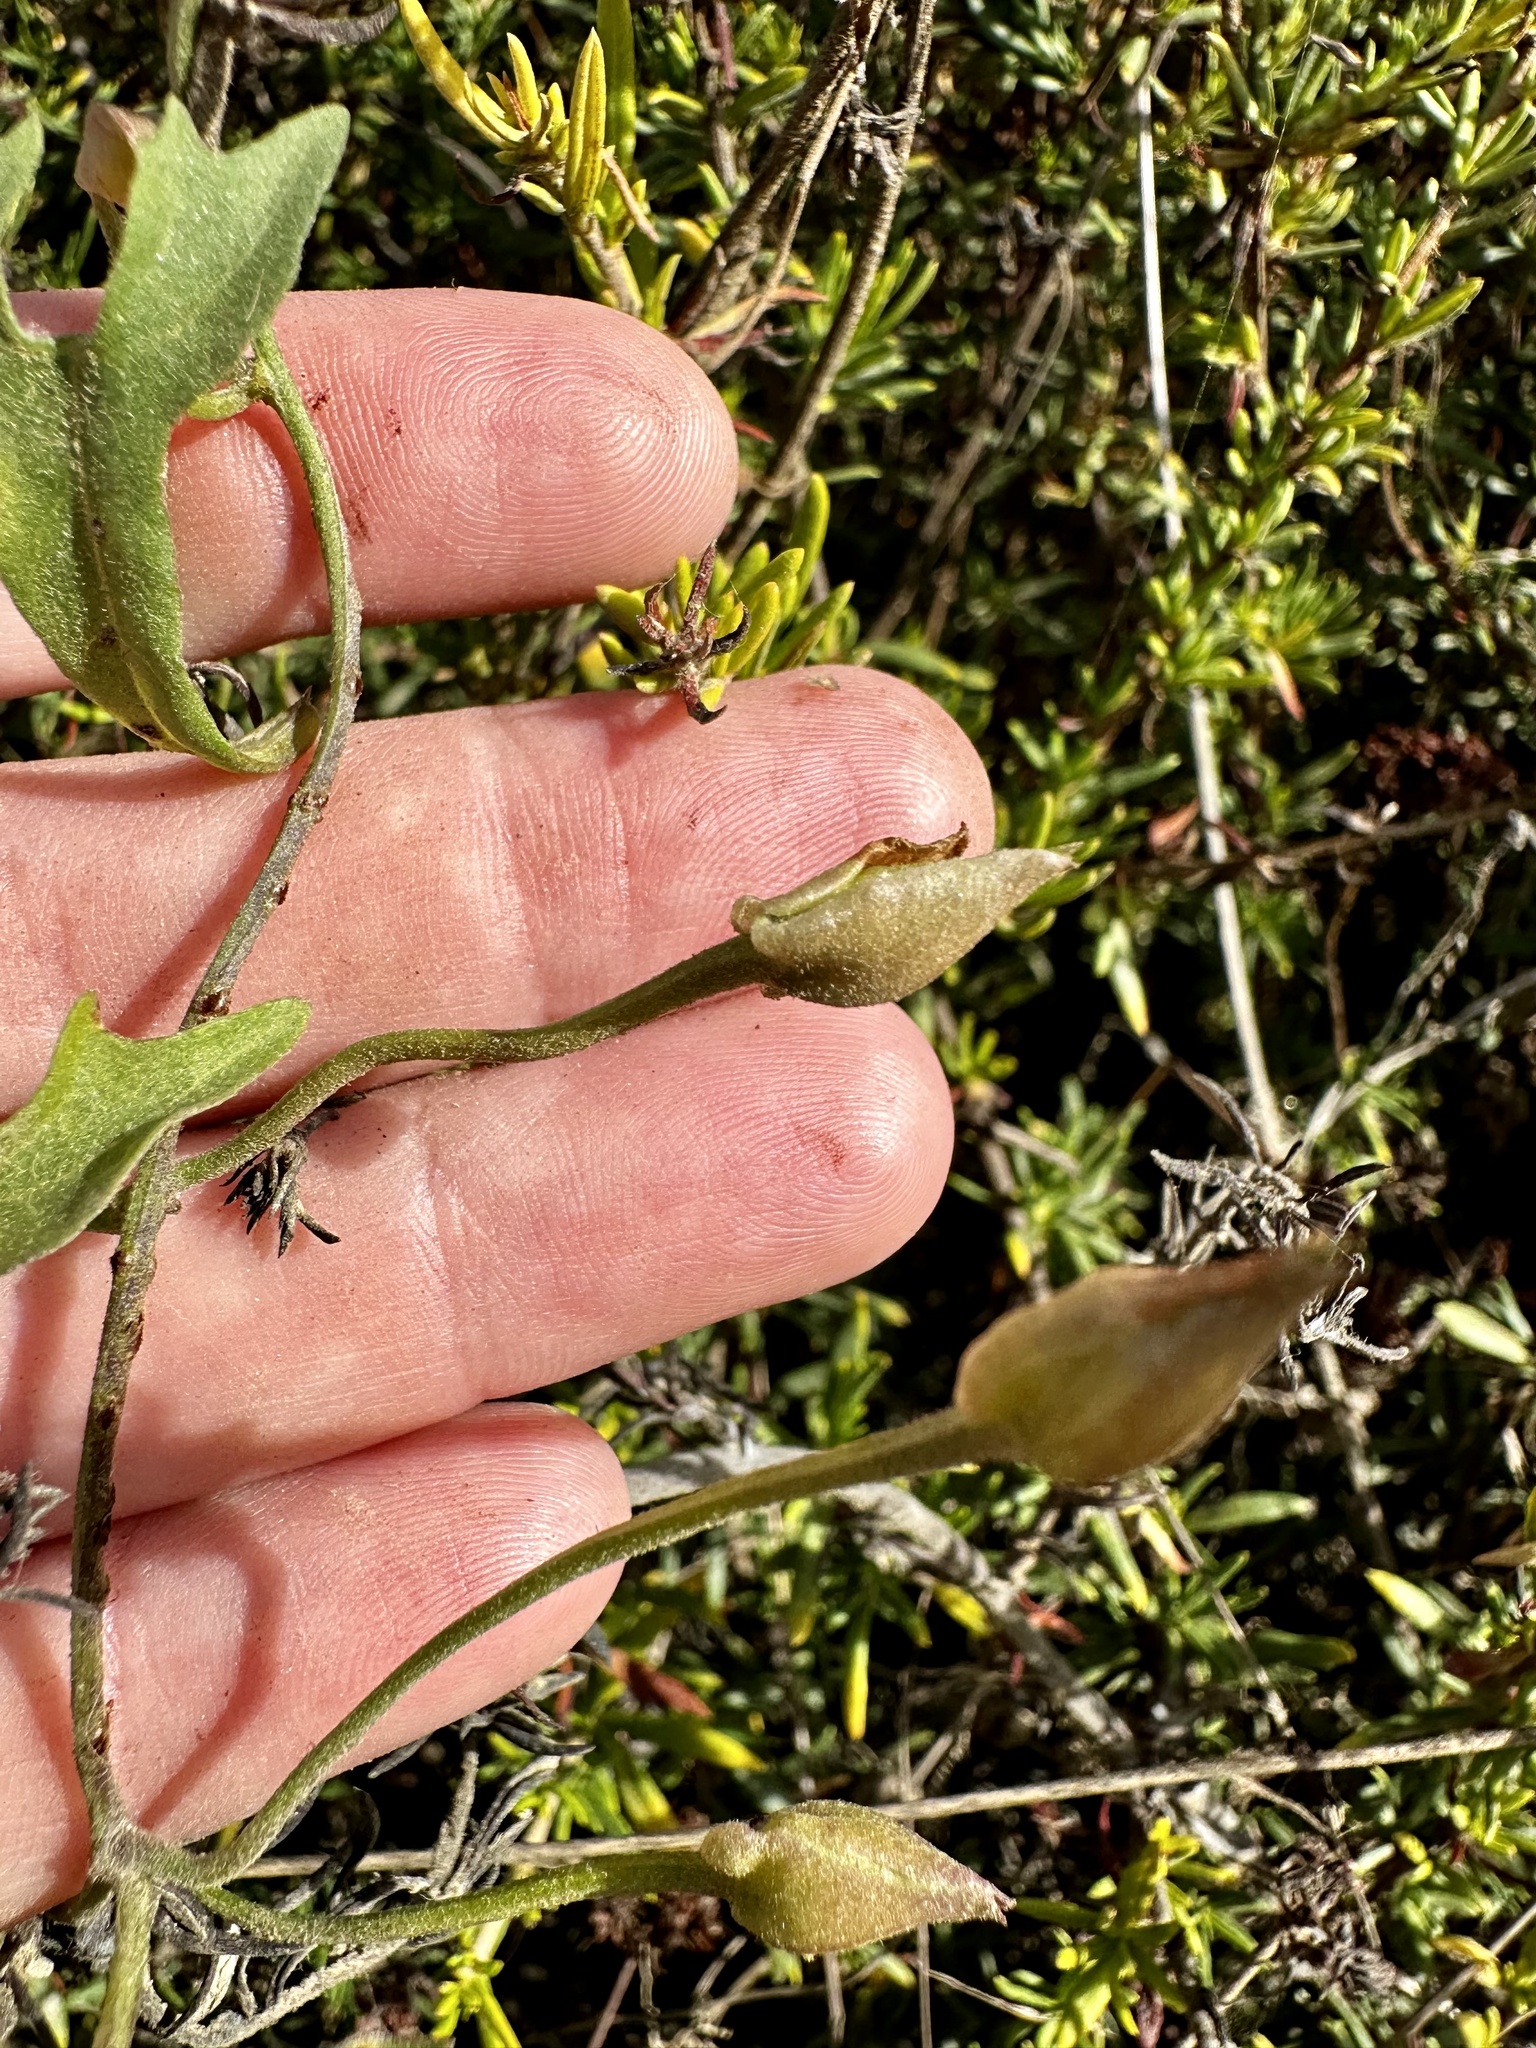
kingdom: Plantae
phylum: Tracheophyta
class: Magnoliopsida
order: Solanales
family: Convolvulaceae
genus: Calystegia
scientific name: Calystegia macrostegia
